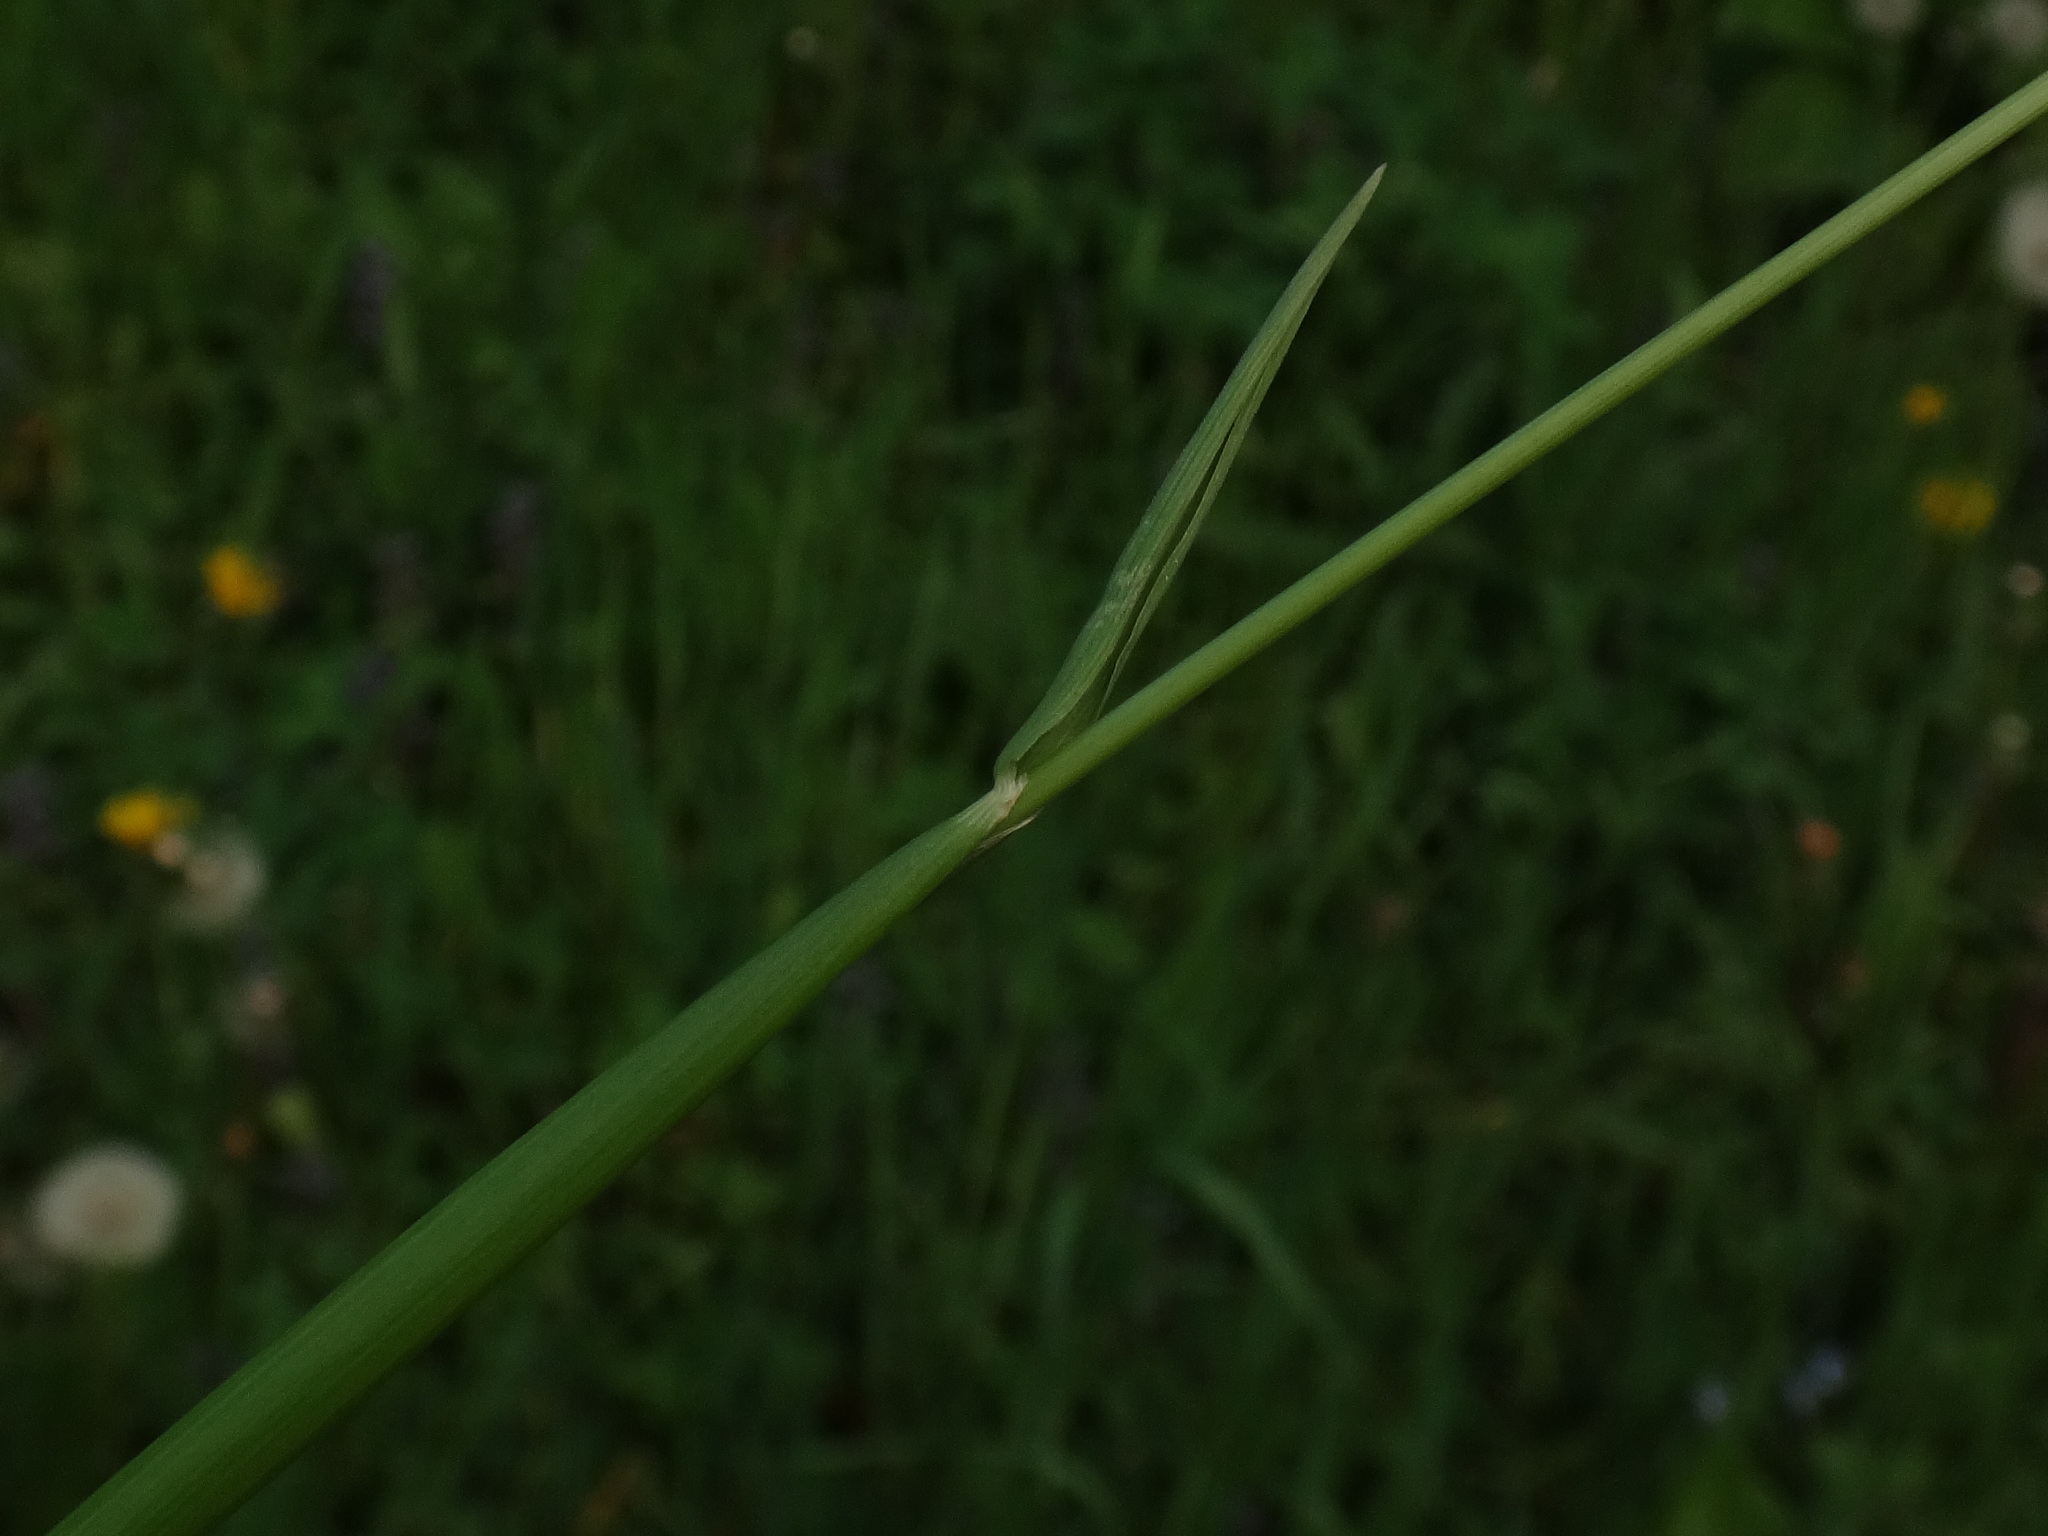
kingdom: Plantae
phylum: Tracheophyta
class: Liliopsida
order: Poales
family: Poaceae
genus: Alopecurus
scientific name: Alopecurus pratensis
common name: Meadow foxtail
